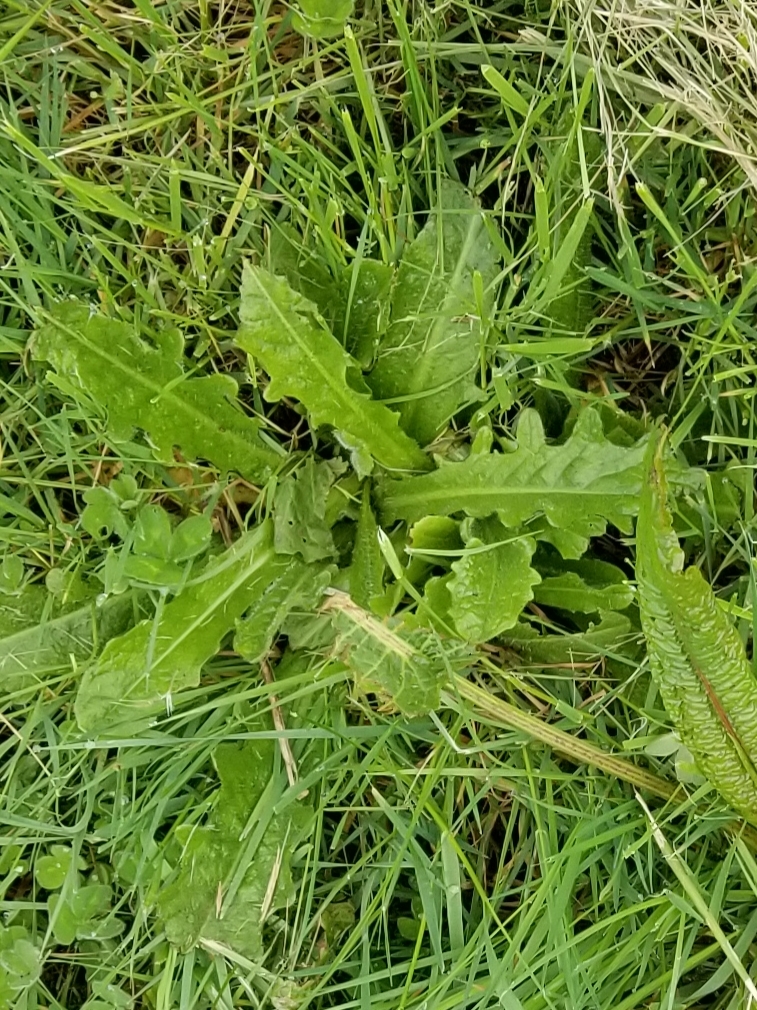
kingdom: Plantae
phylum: Tracheophyta
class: Magnoliopsida
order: Asterales
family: Asteraceae
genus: Hypochaeris
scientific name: Hypochaeris radicata
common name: Flatweed
